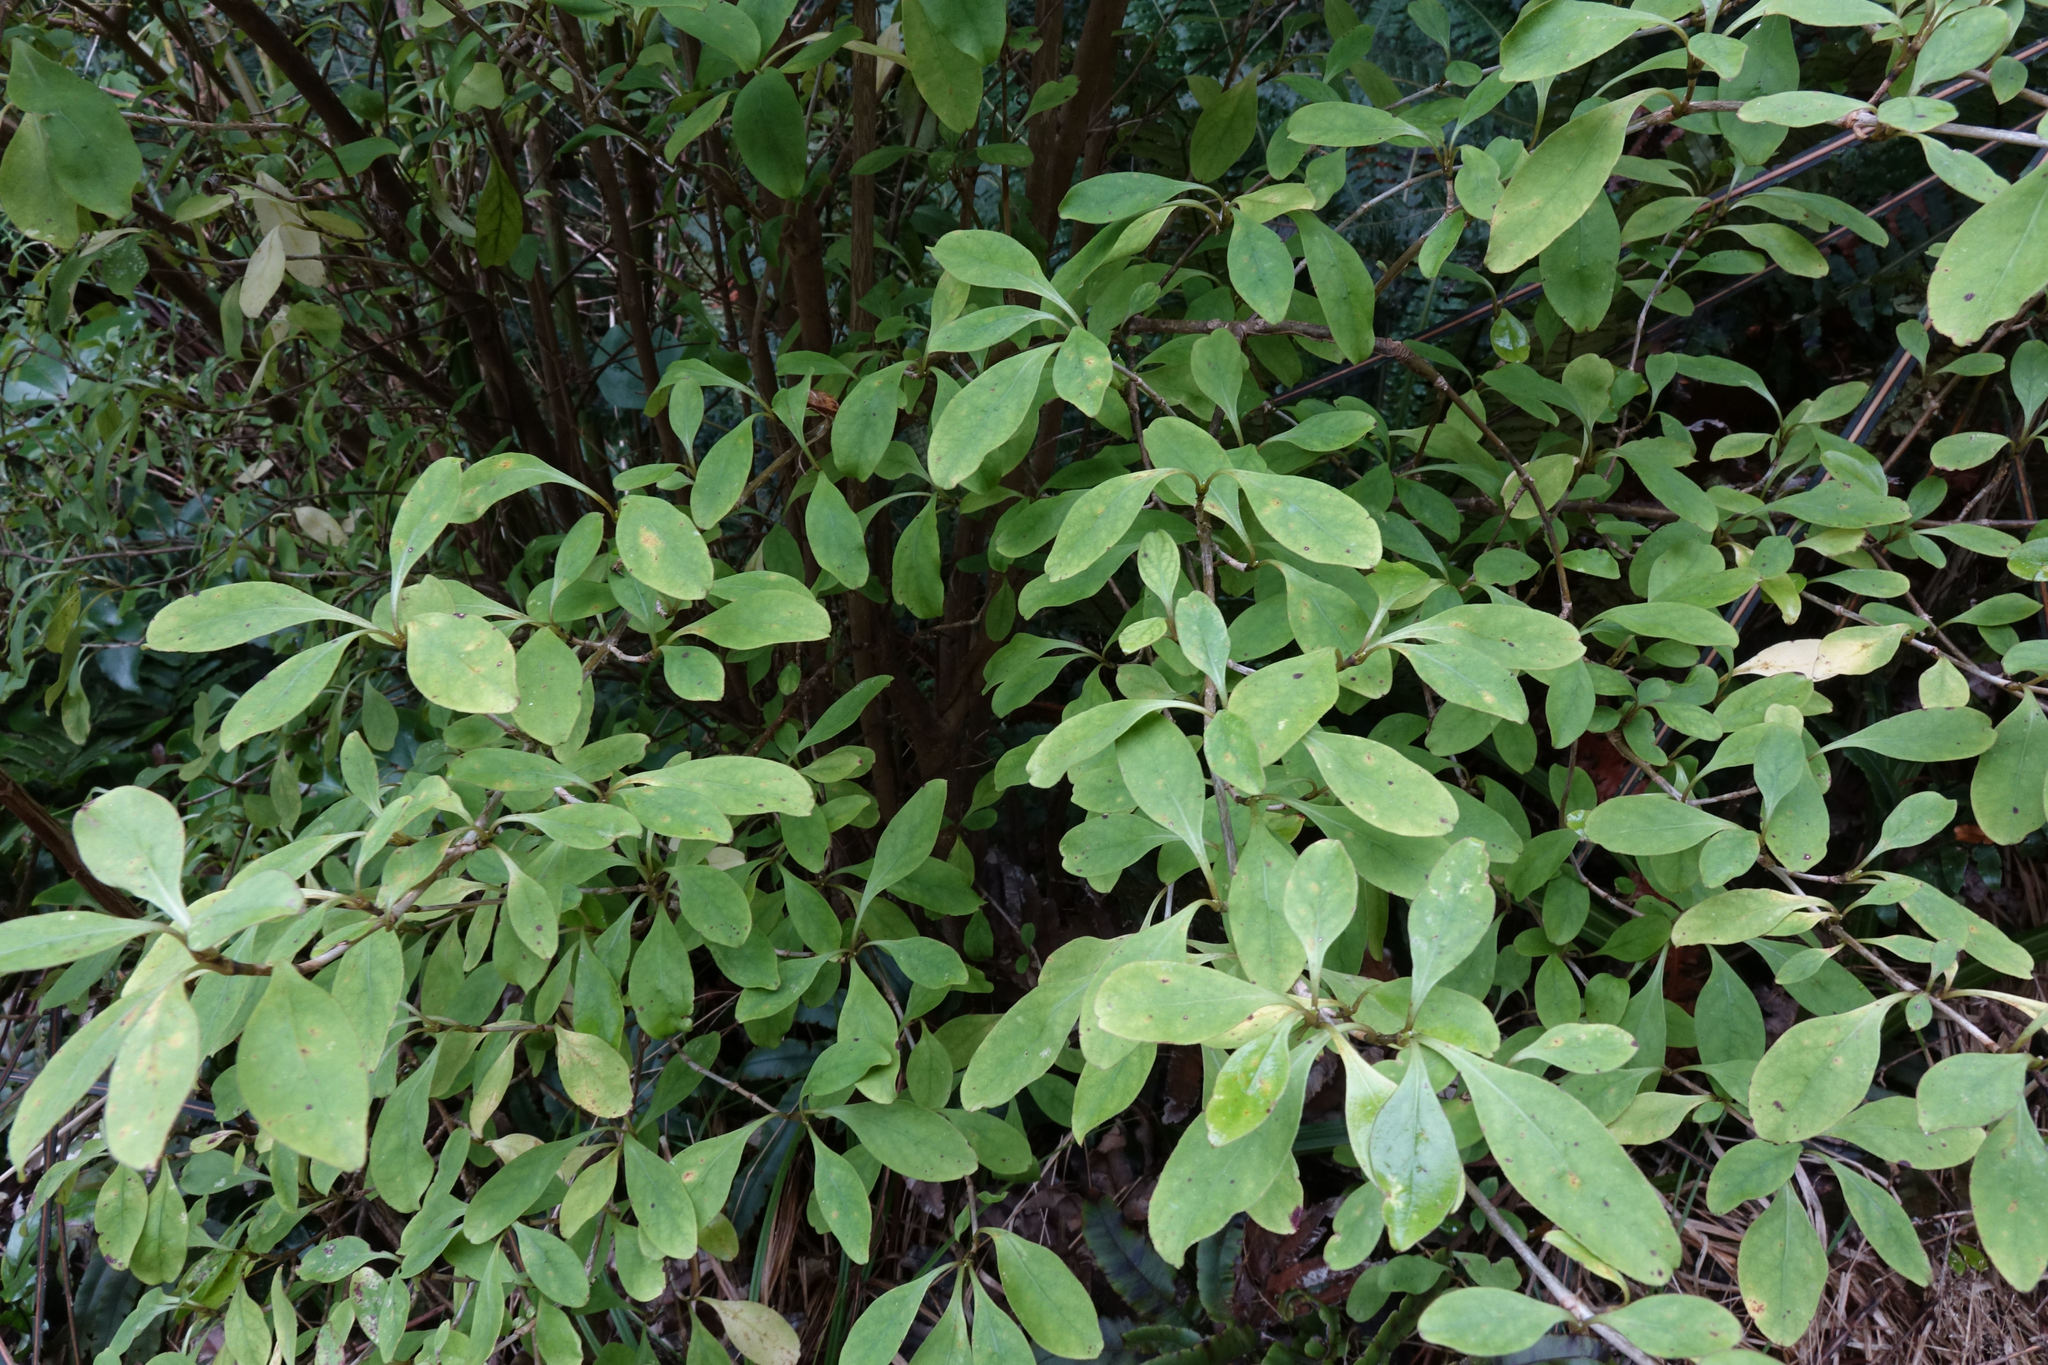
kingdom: Plantae
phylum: Tracheophyta
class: Magnoliopsida
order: Gentianales
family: Rubiaceae
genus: Coprosma
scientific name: Coprosma foetidissima
